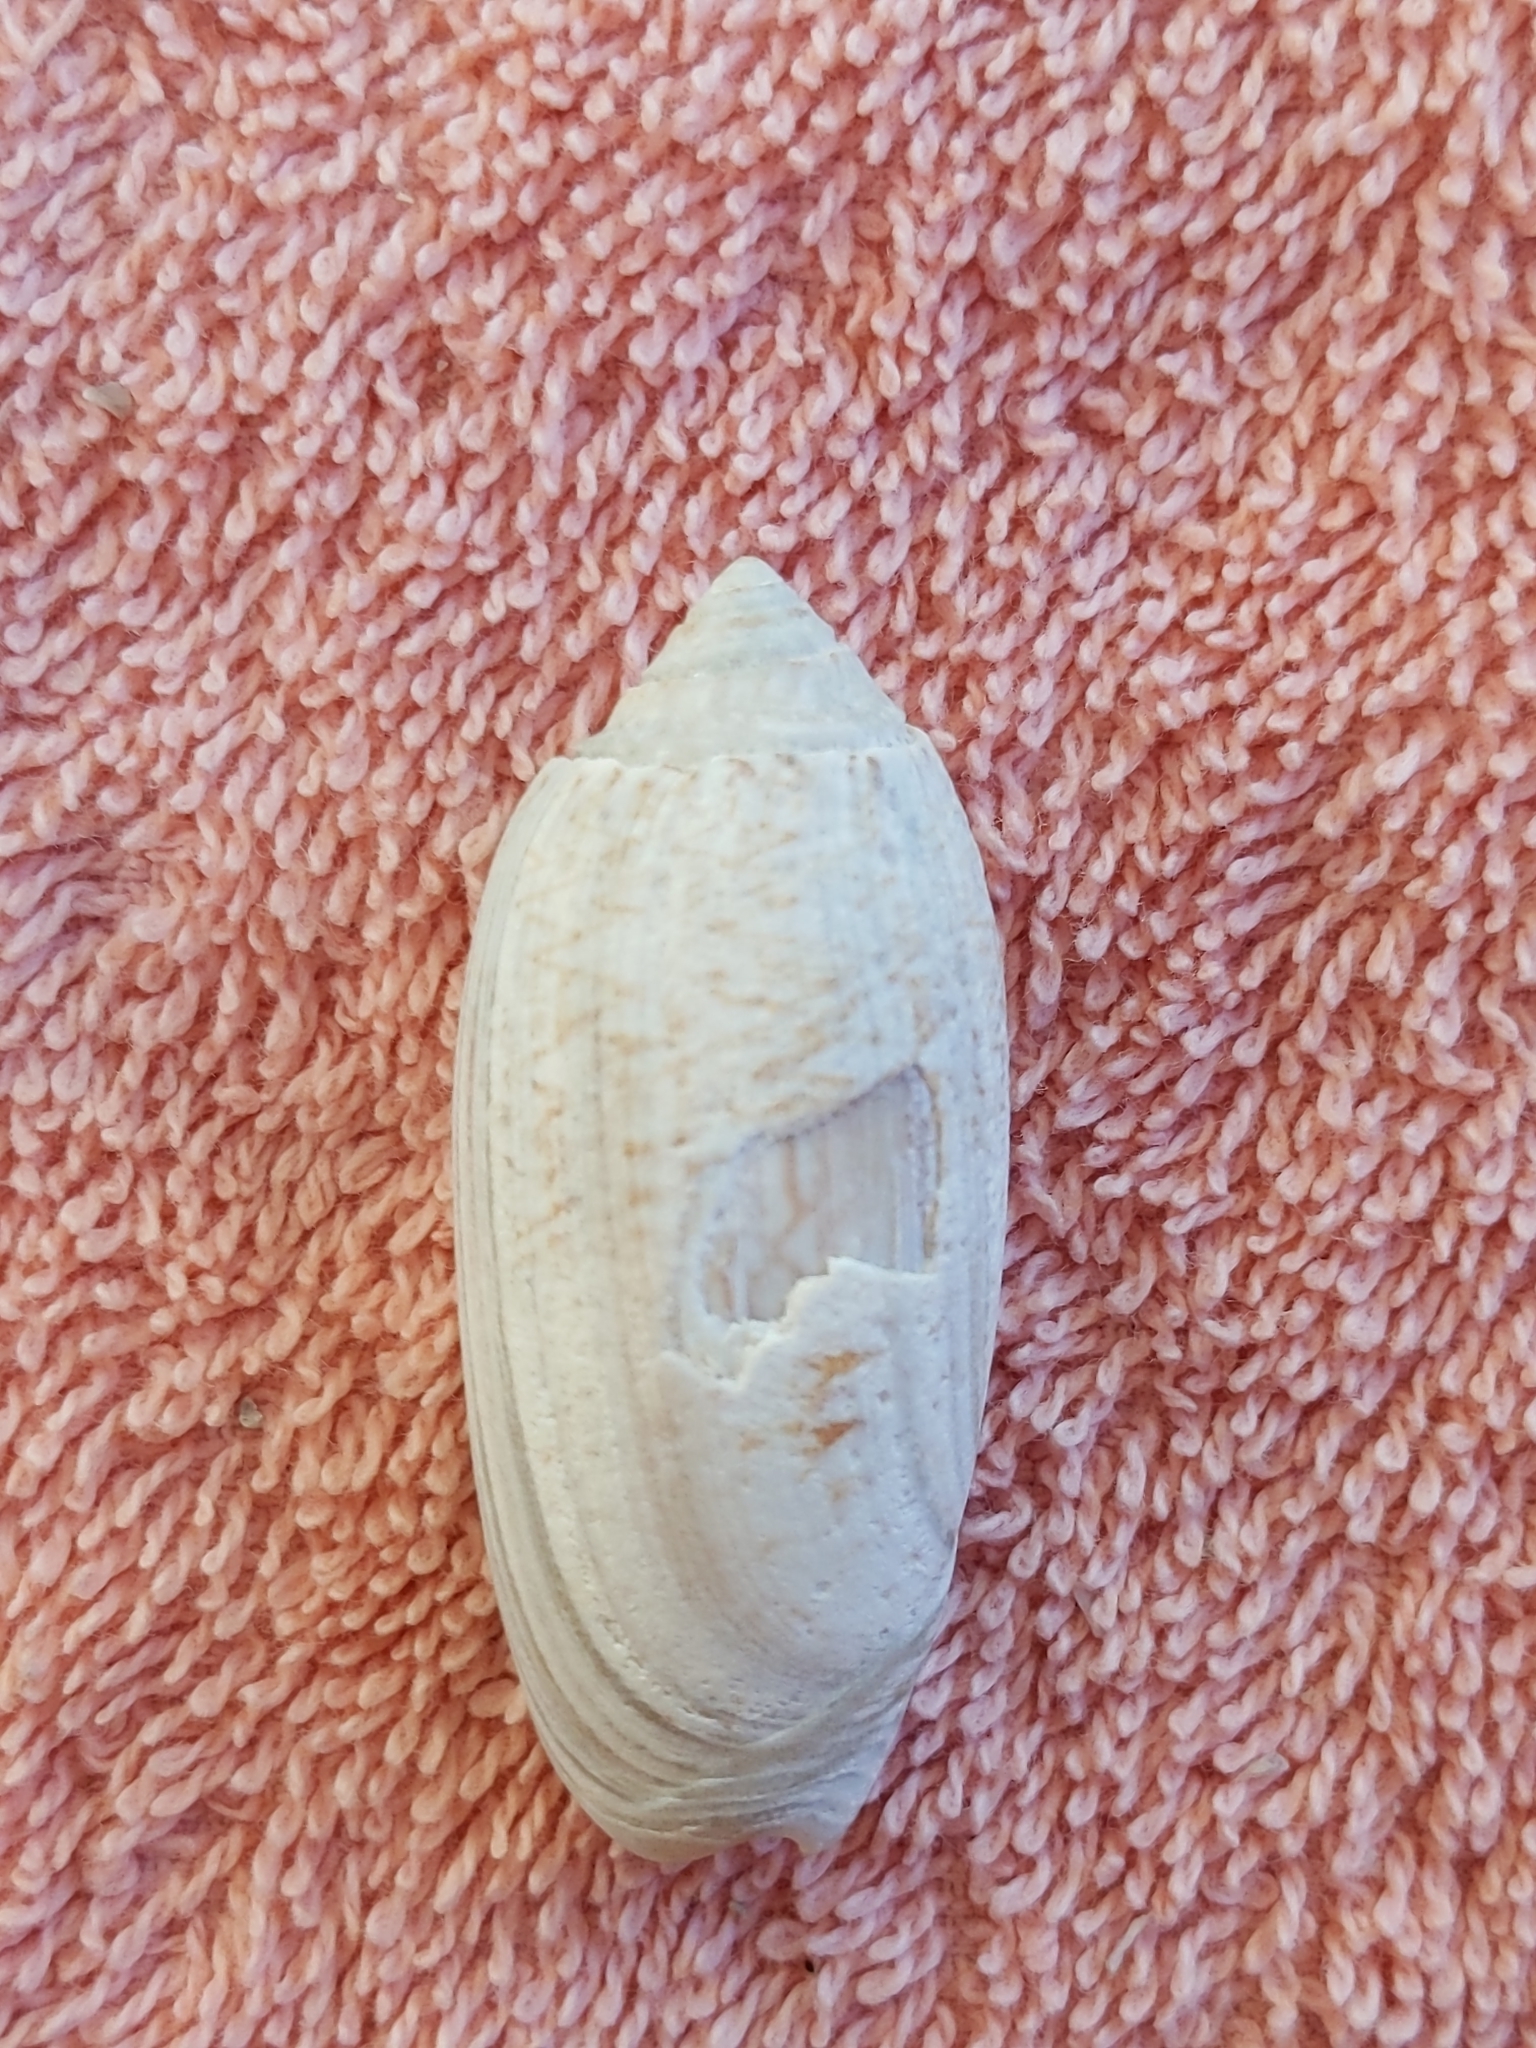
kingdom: Animalia
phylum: Mollusca
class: Gastropoda
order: Neogastropoda
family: Olividae
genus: Oliva
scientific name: Oliva sayana
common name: Lettered olive
